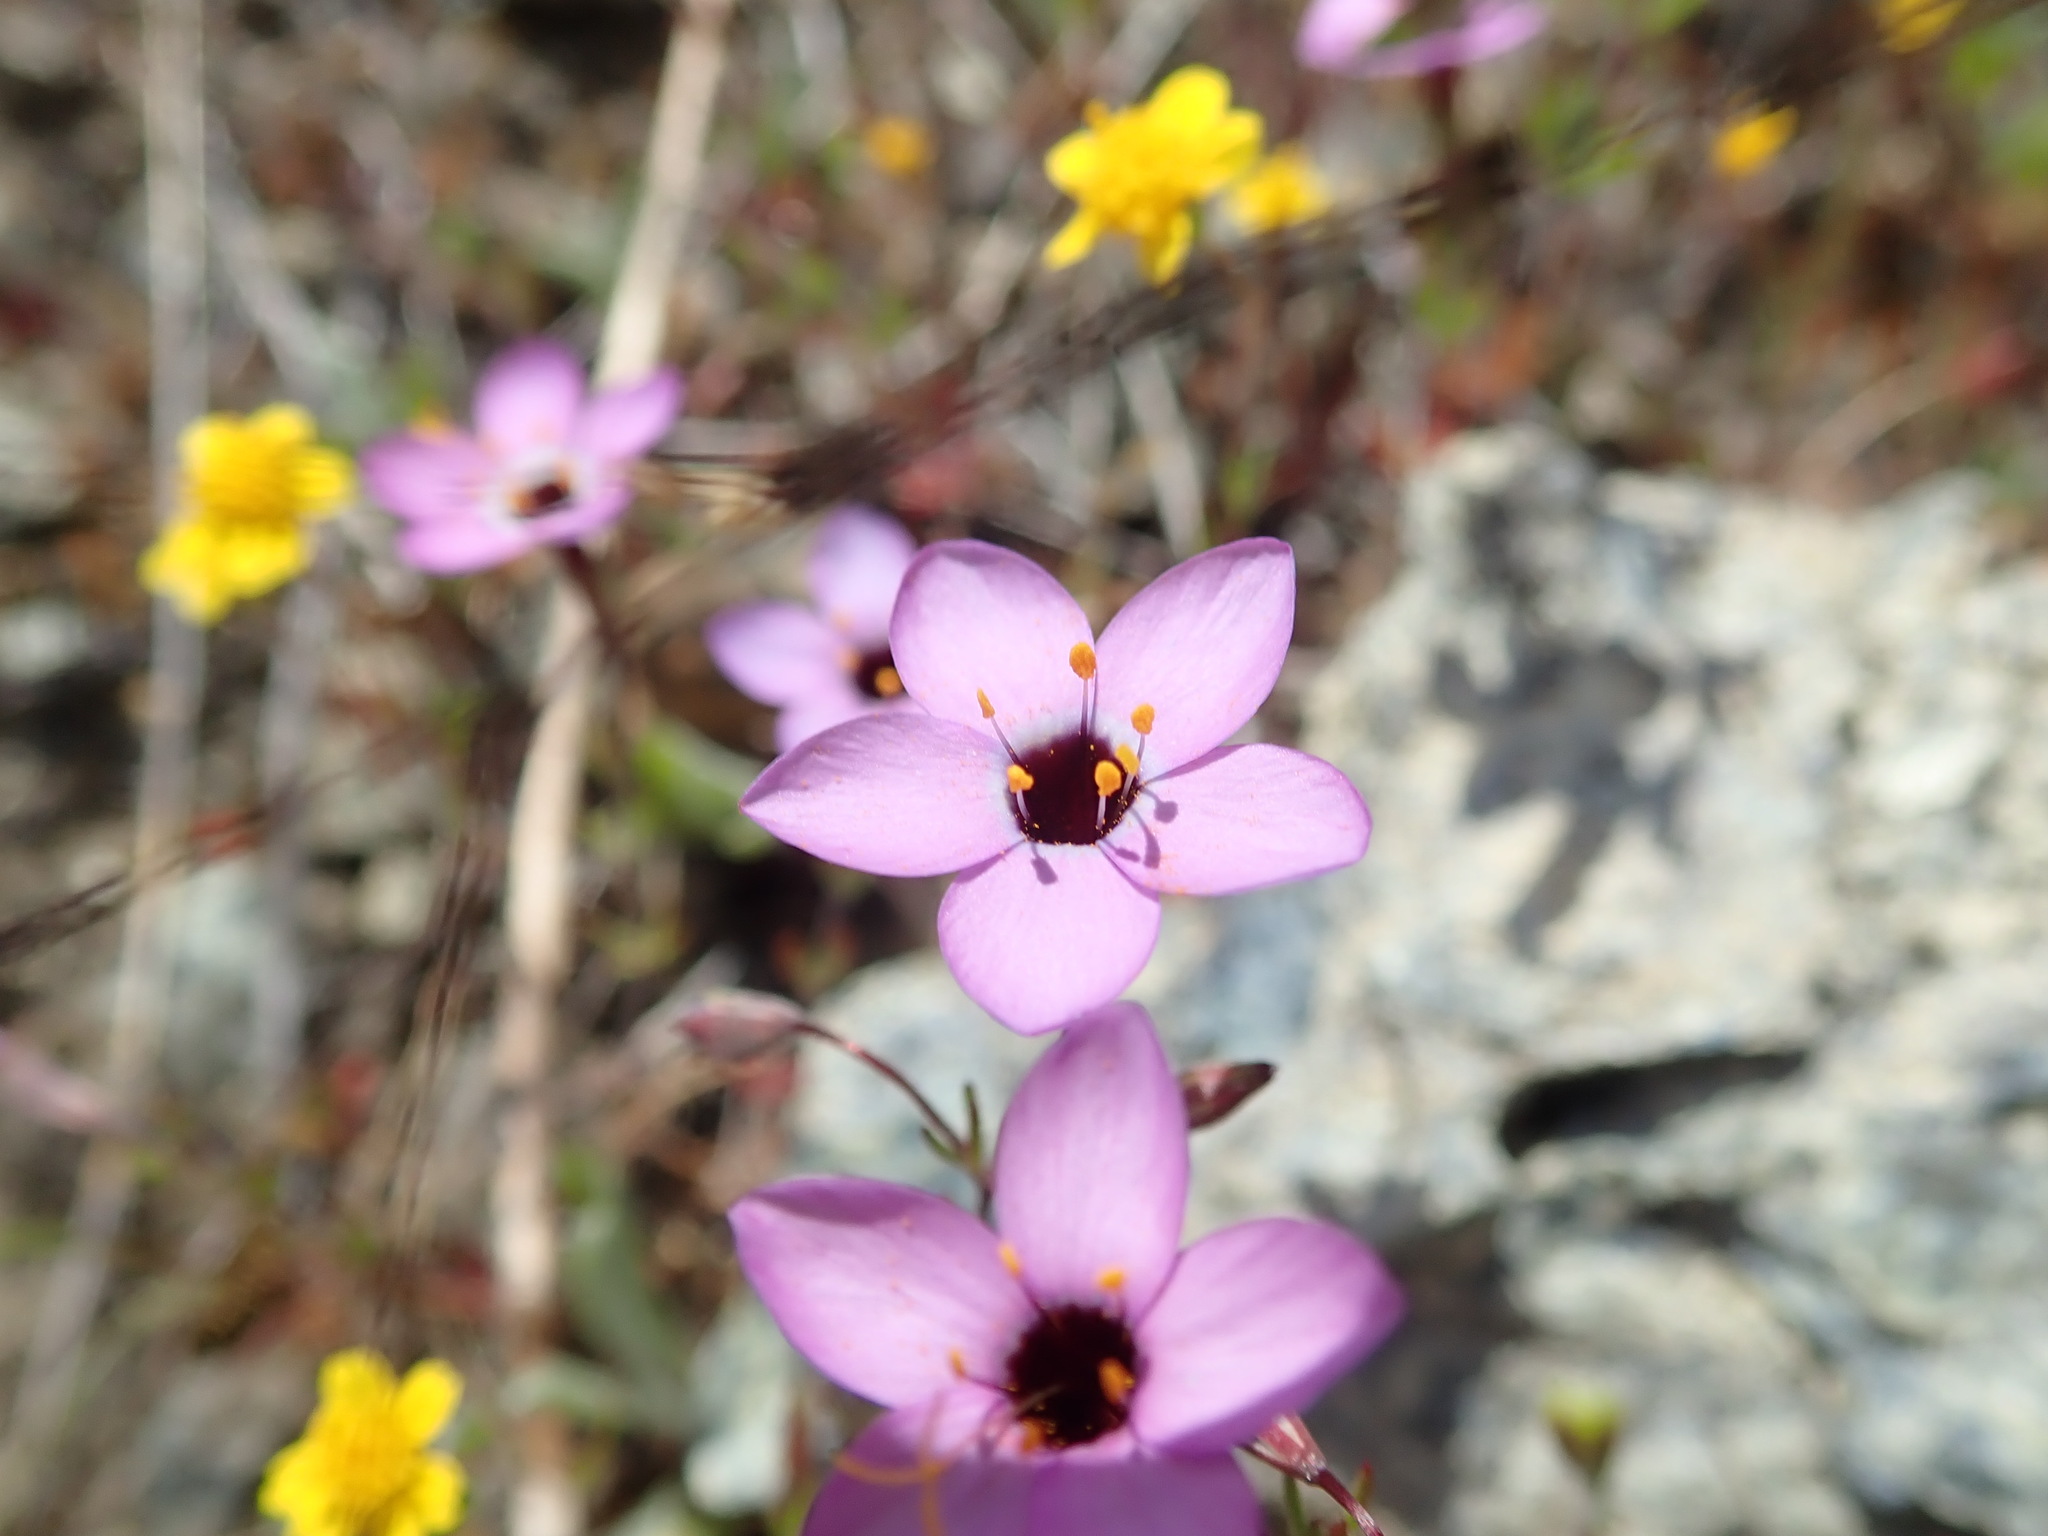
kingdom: Plantae
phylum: Tracheophyta
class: Magnoliopsida
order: Ericales
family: Polemoniaceae
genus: Leptosiphon
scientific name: Leptosiphon ambiguus
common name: Serpentine linanthus
